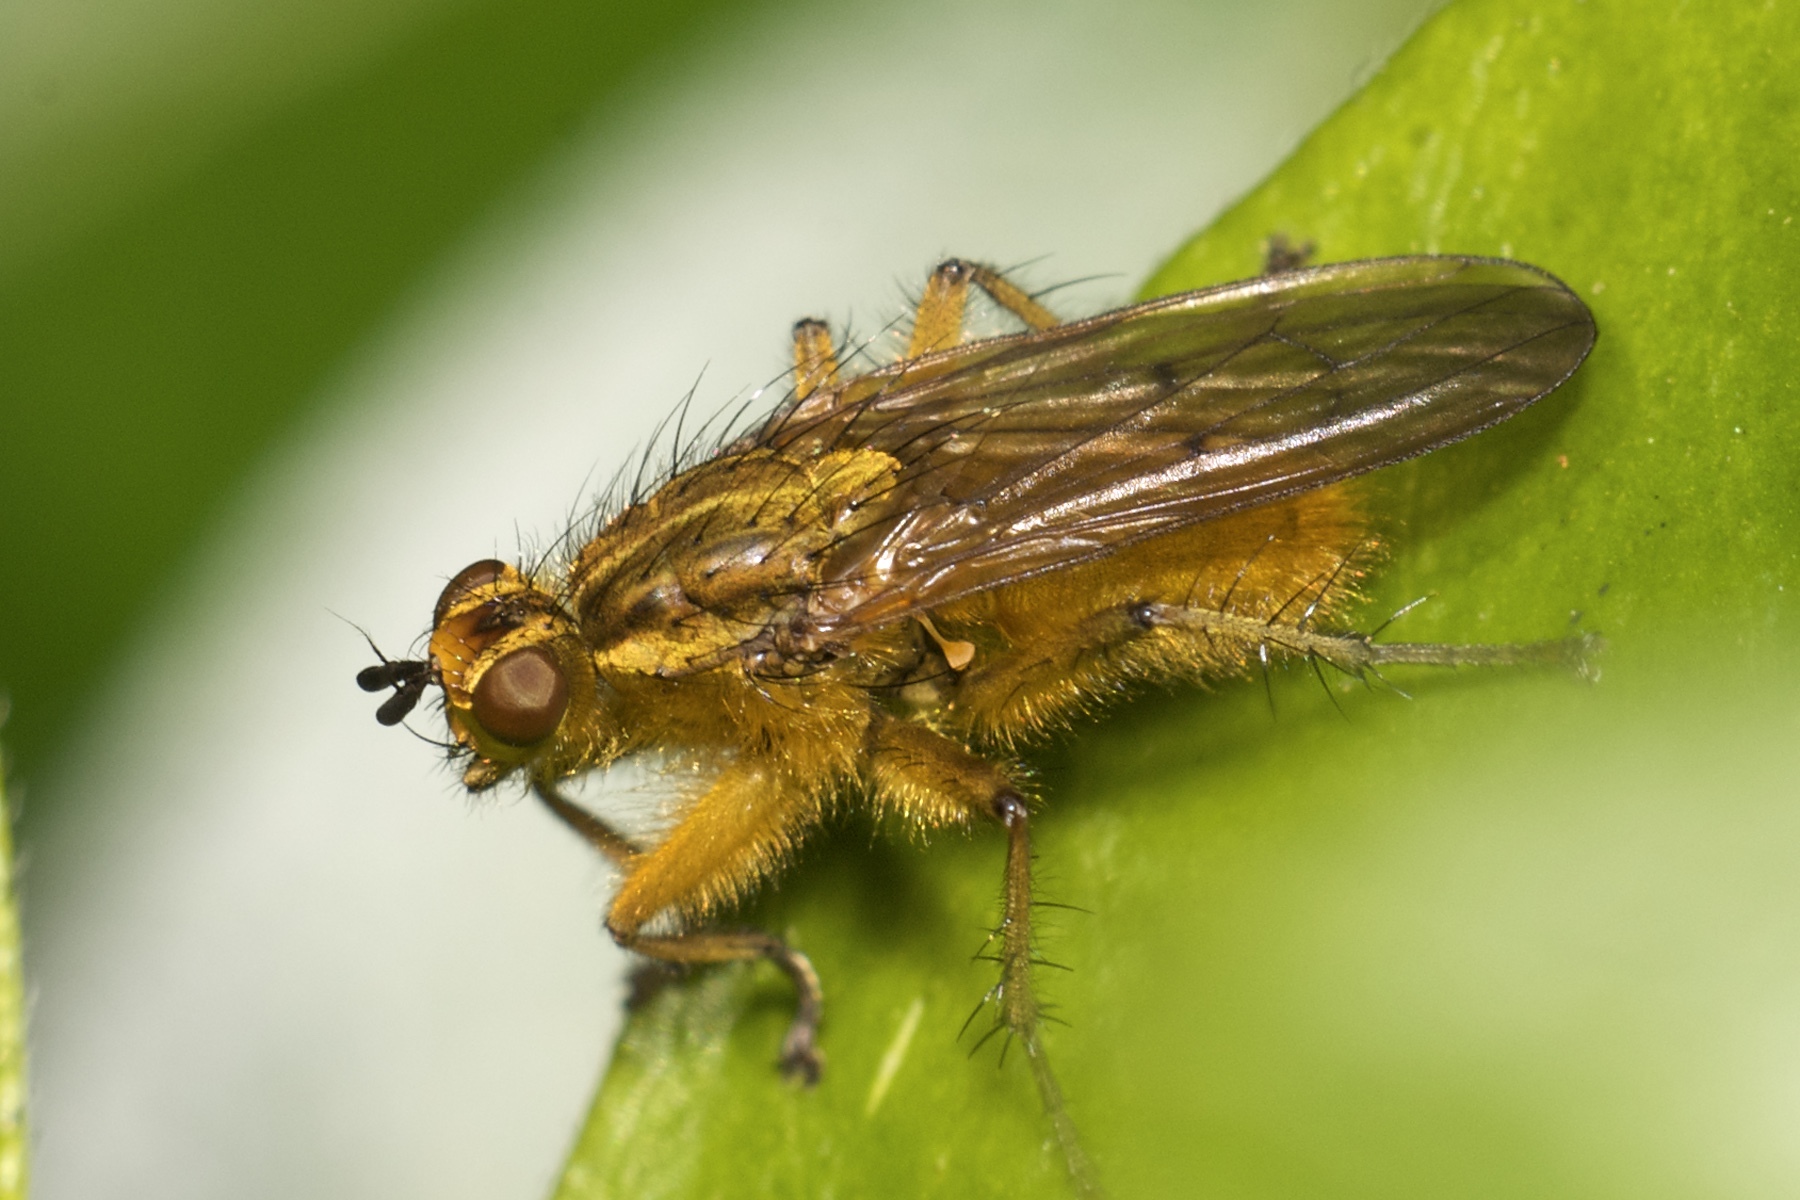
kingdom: Animalia
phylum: Arthropoda
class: Insecta
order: Diptera
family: Scathophagidae
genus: Scathophaga
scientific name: Scathophaga stercoraria
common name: Yellow dung fly
